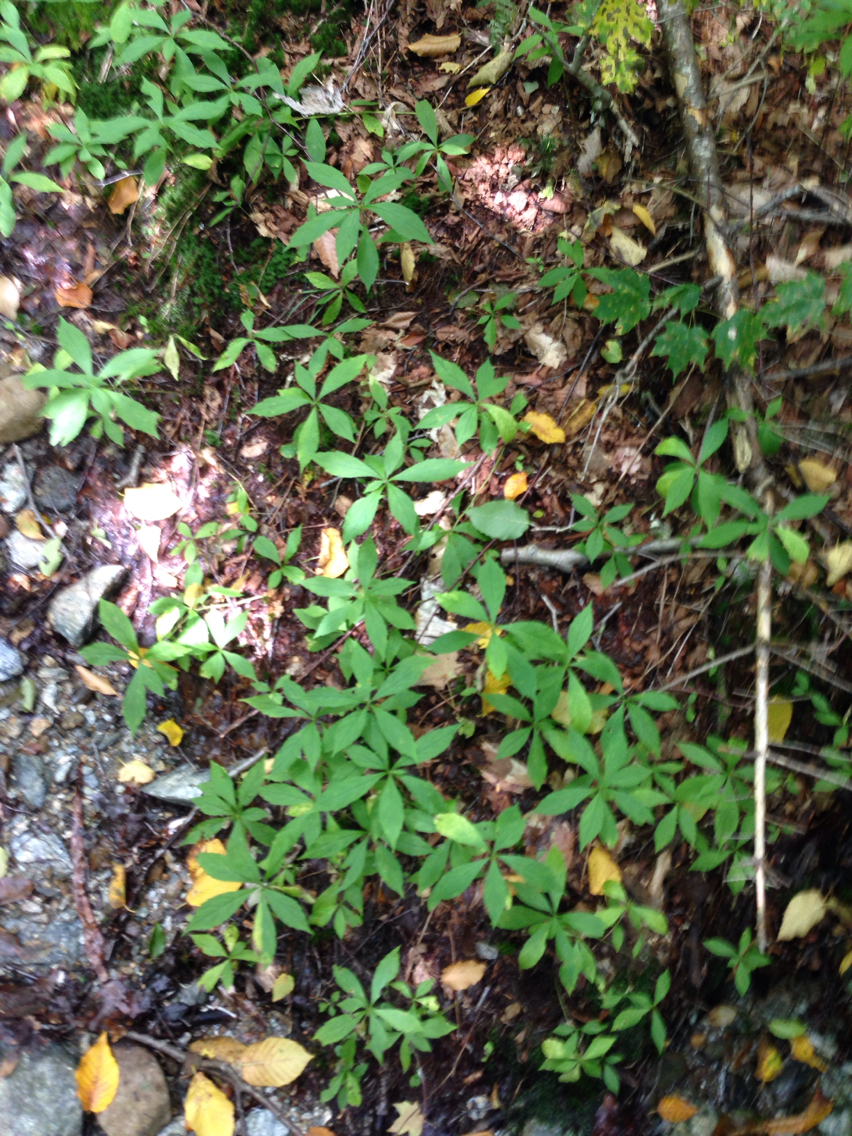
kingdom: Plantae
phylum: Tracheophyta
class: Magnoliopsida
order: Asterales
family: Asteraceae
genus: Oclemena
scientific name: Oclemena acuminata
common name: Mountain aster
